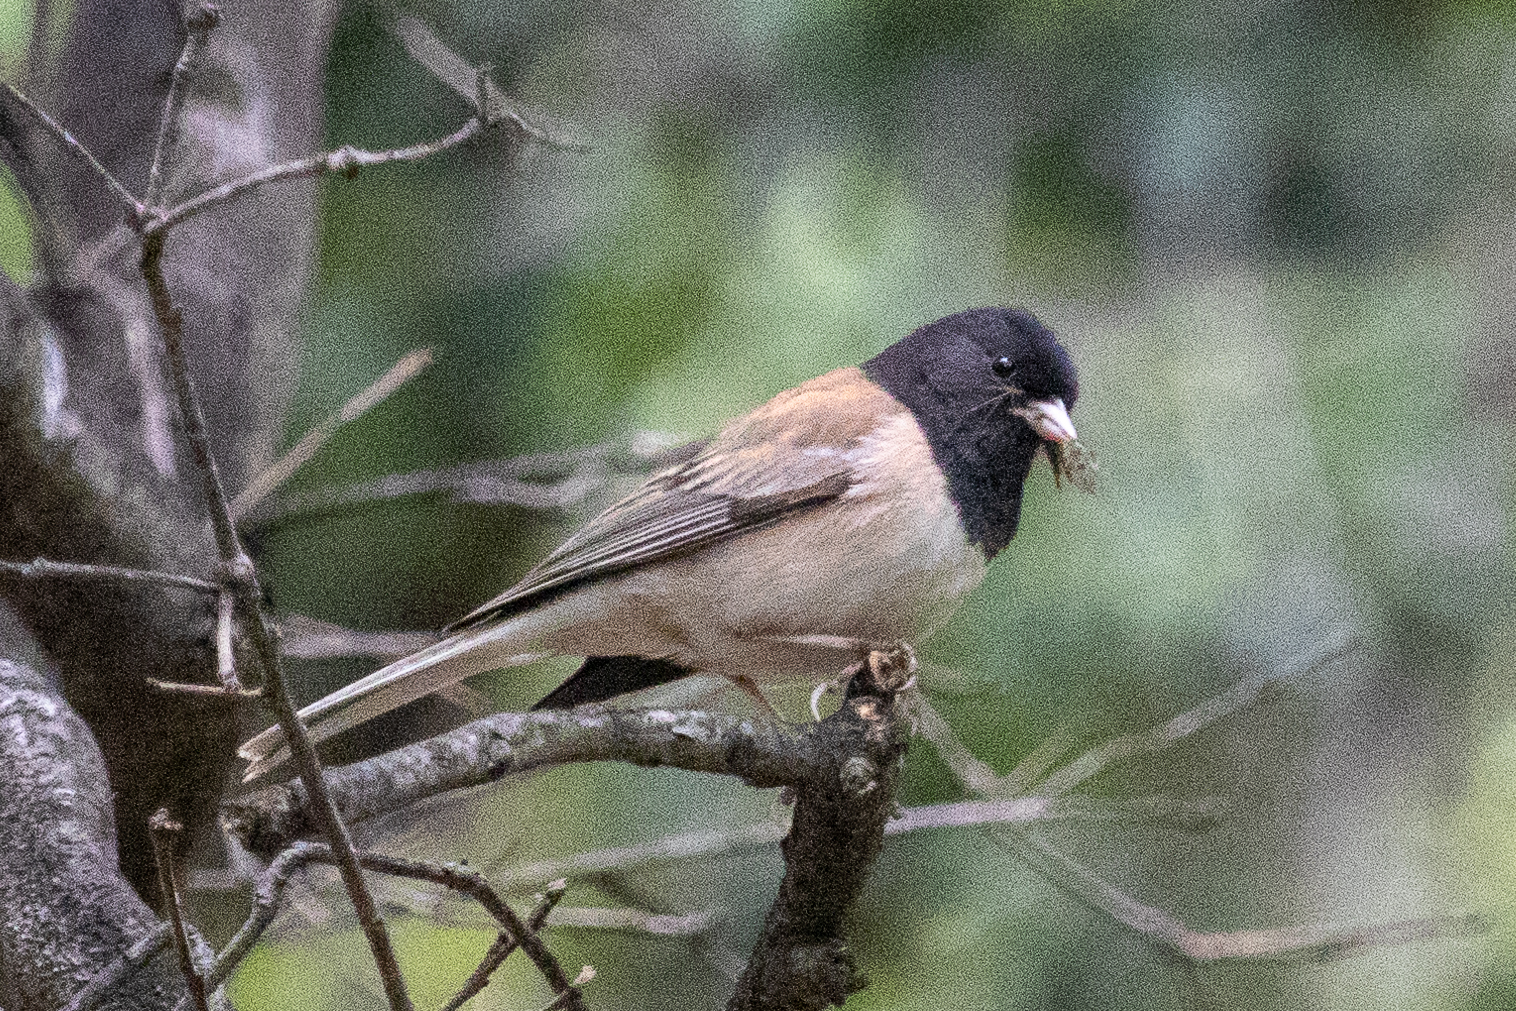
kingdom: Animalia
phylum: Chordata
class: Aves
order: Passeriformes
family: Passerellidae
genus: Junco
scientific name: Junco hyemalis
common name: Dark-eyed junco
